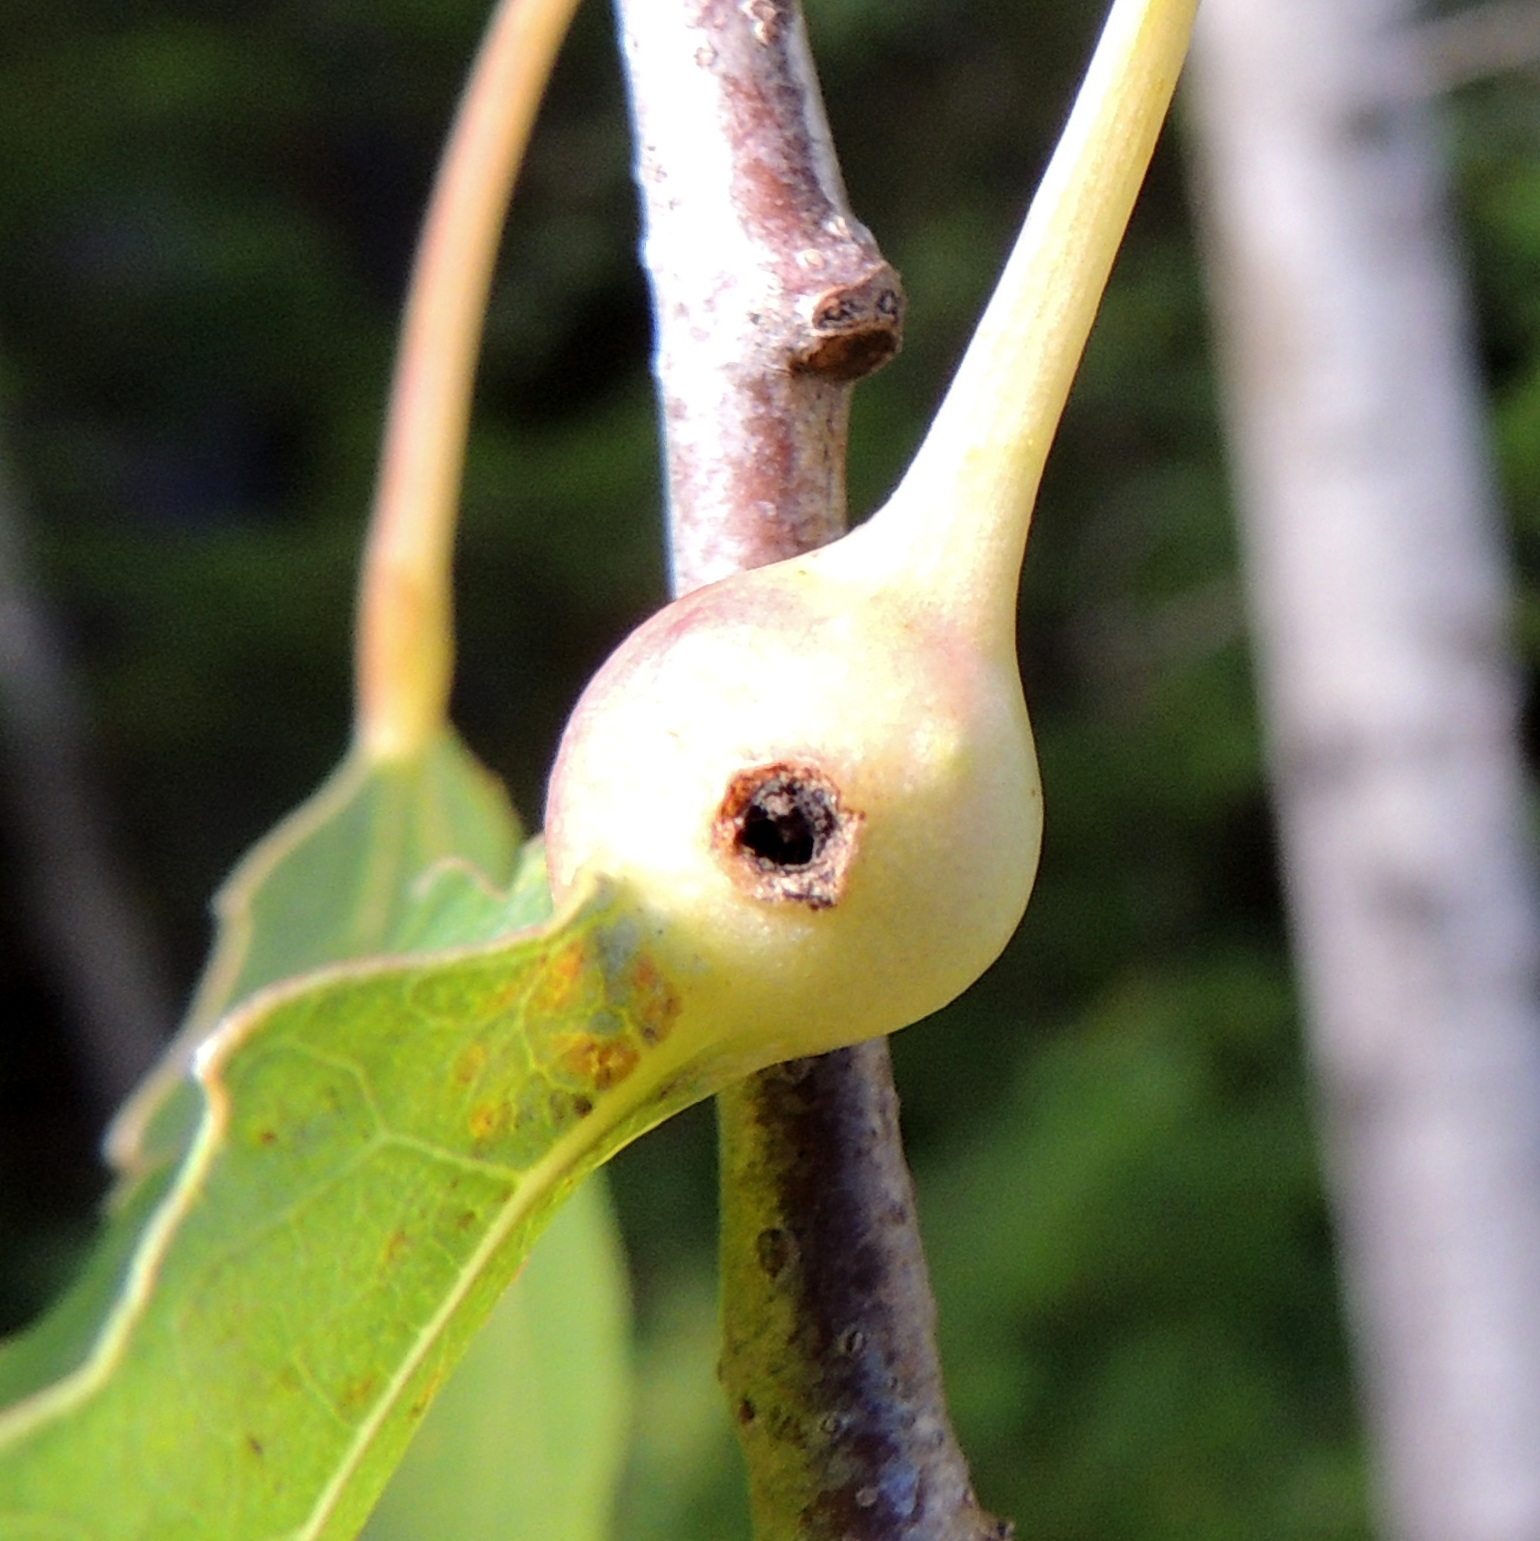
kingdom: Animalia
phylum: Arthropoda
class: Insecta
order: Diptera
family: Cecidomyiidae
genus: Contarinia
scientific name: Contarinia petioli
